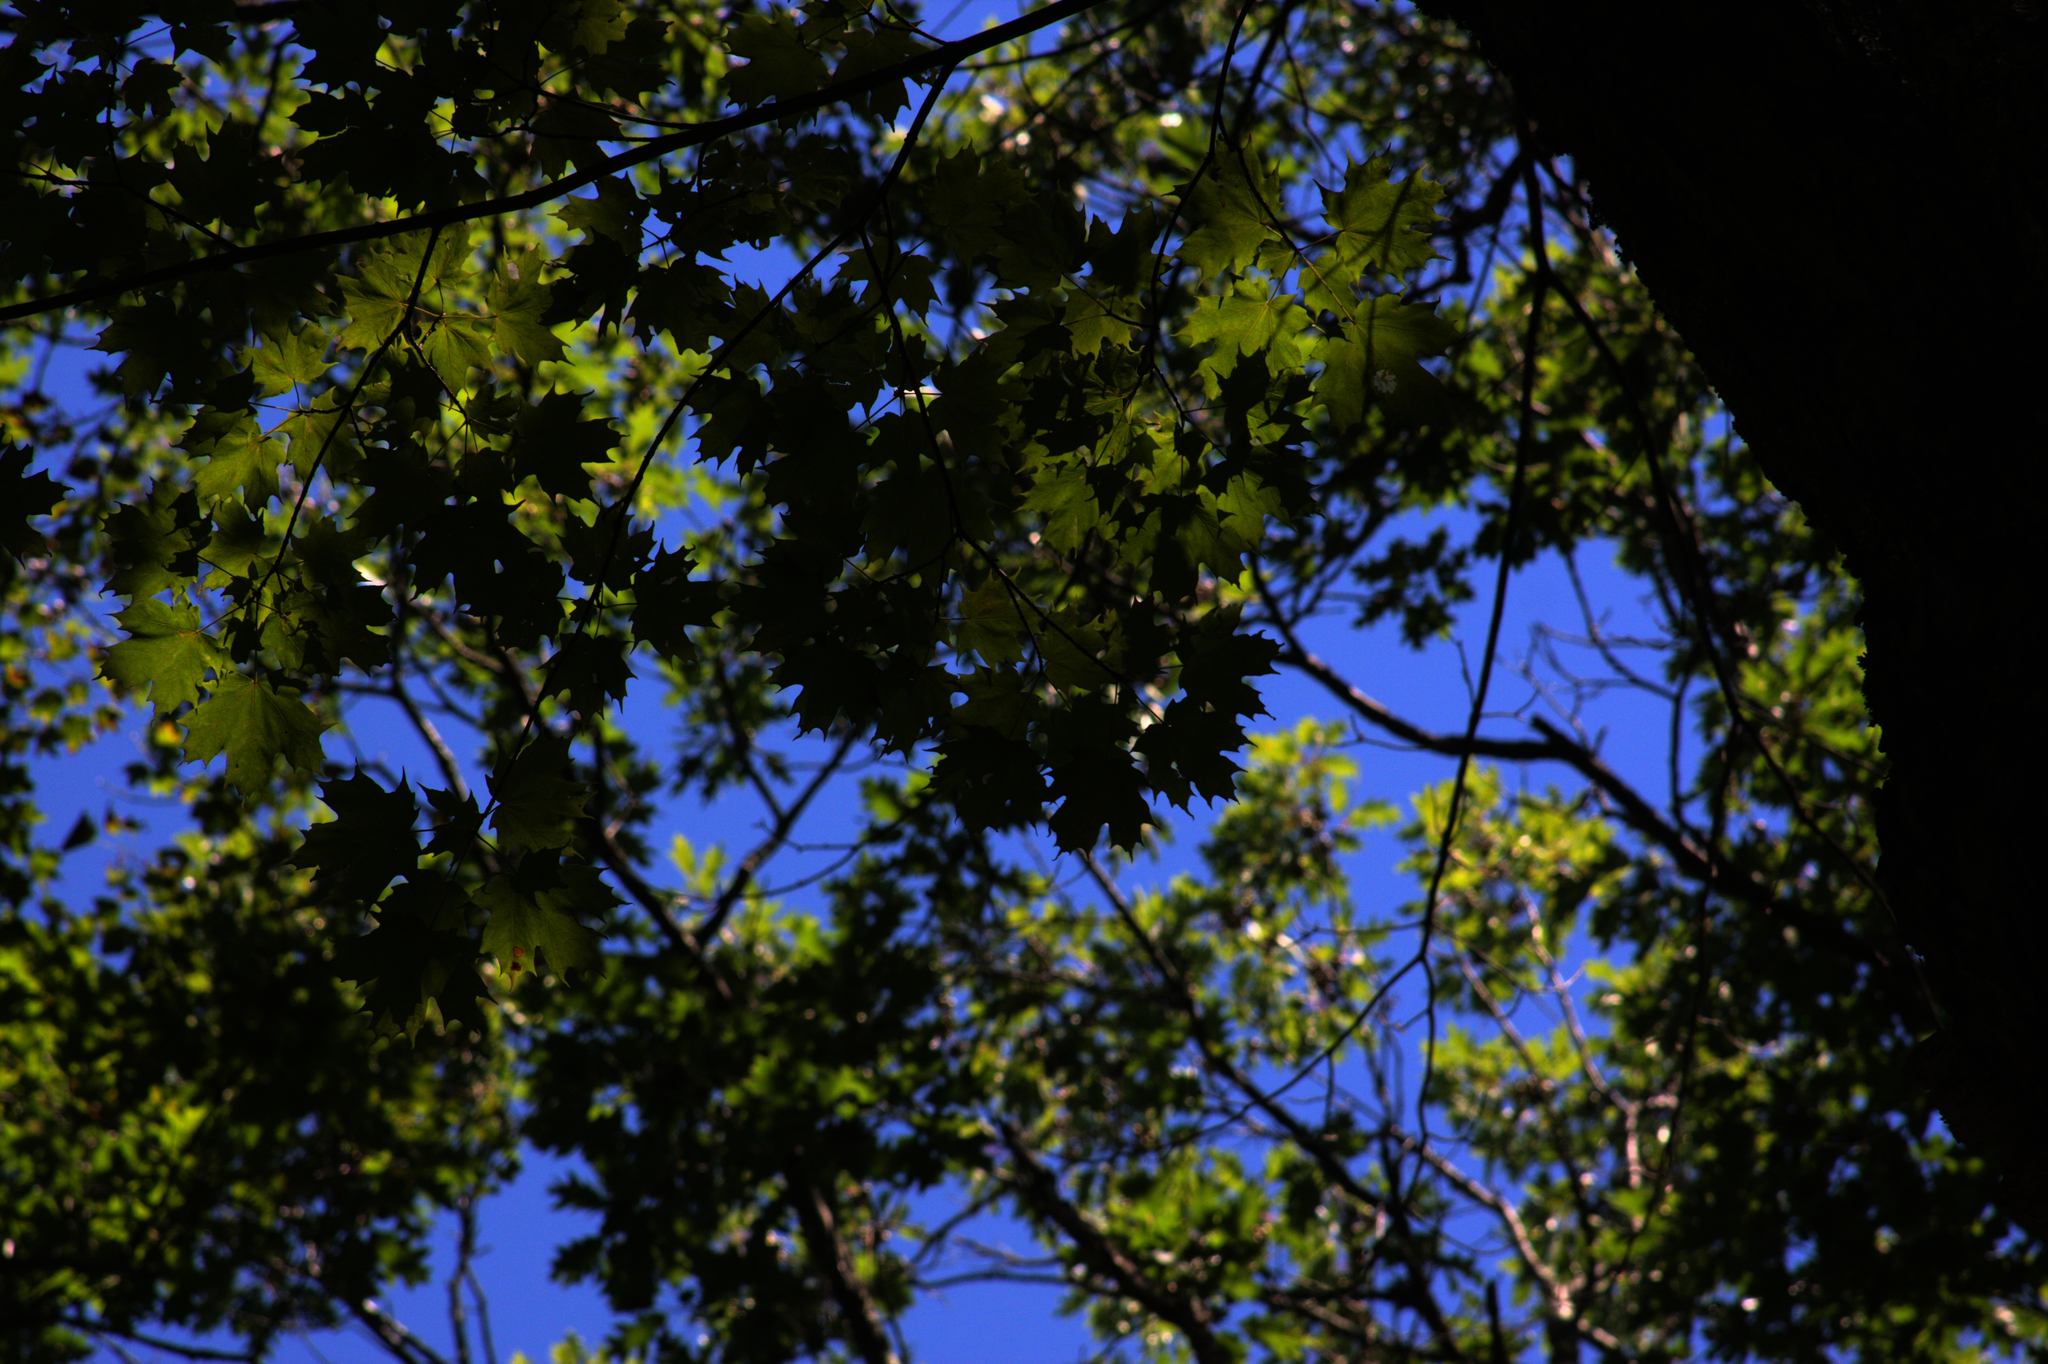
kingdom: Plantae
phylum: Tracheophyta
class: Magnoliopsida
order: Sapindales
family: Sapindaceae
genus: Acer
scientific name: Acer saccharum
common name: Sugar maple
